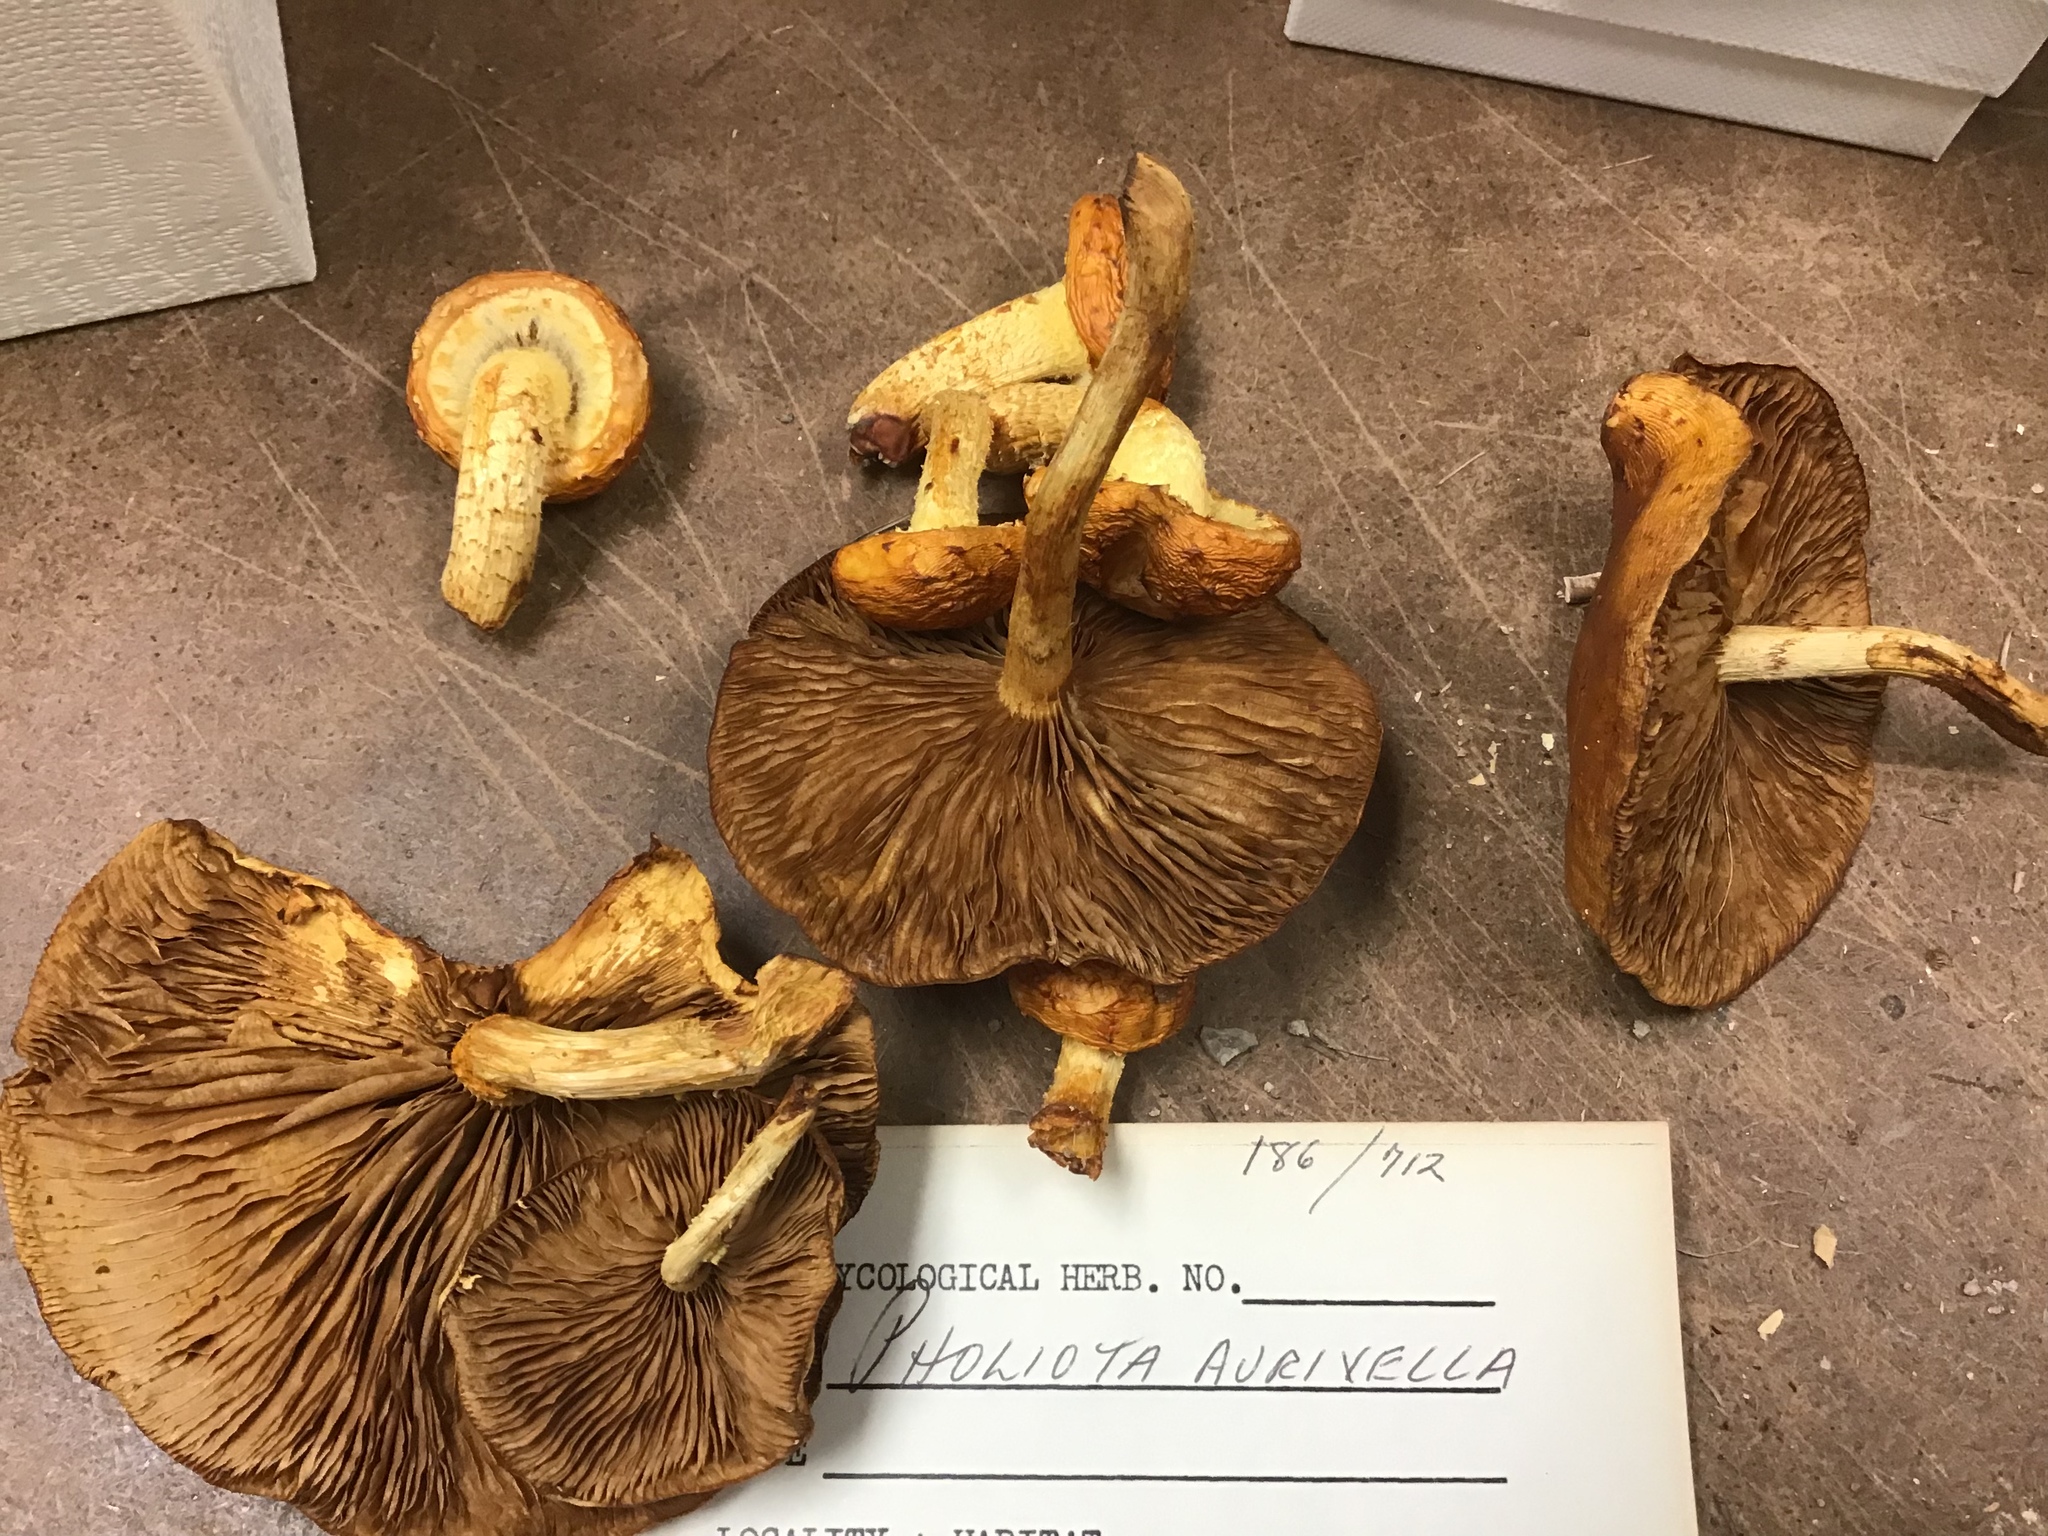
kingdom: Fungi
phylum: Basidiomycota
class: Agaricomycetes
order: Agaricales
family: Strophariaceae
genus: Pholiota
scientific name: Pholiota adiposa
